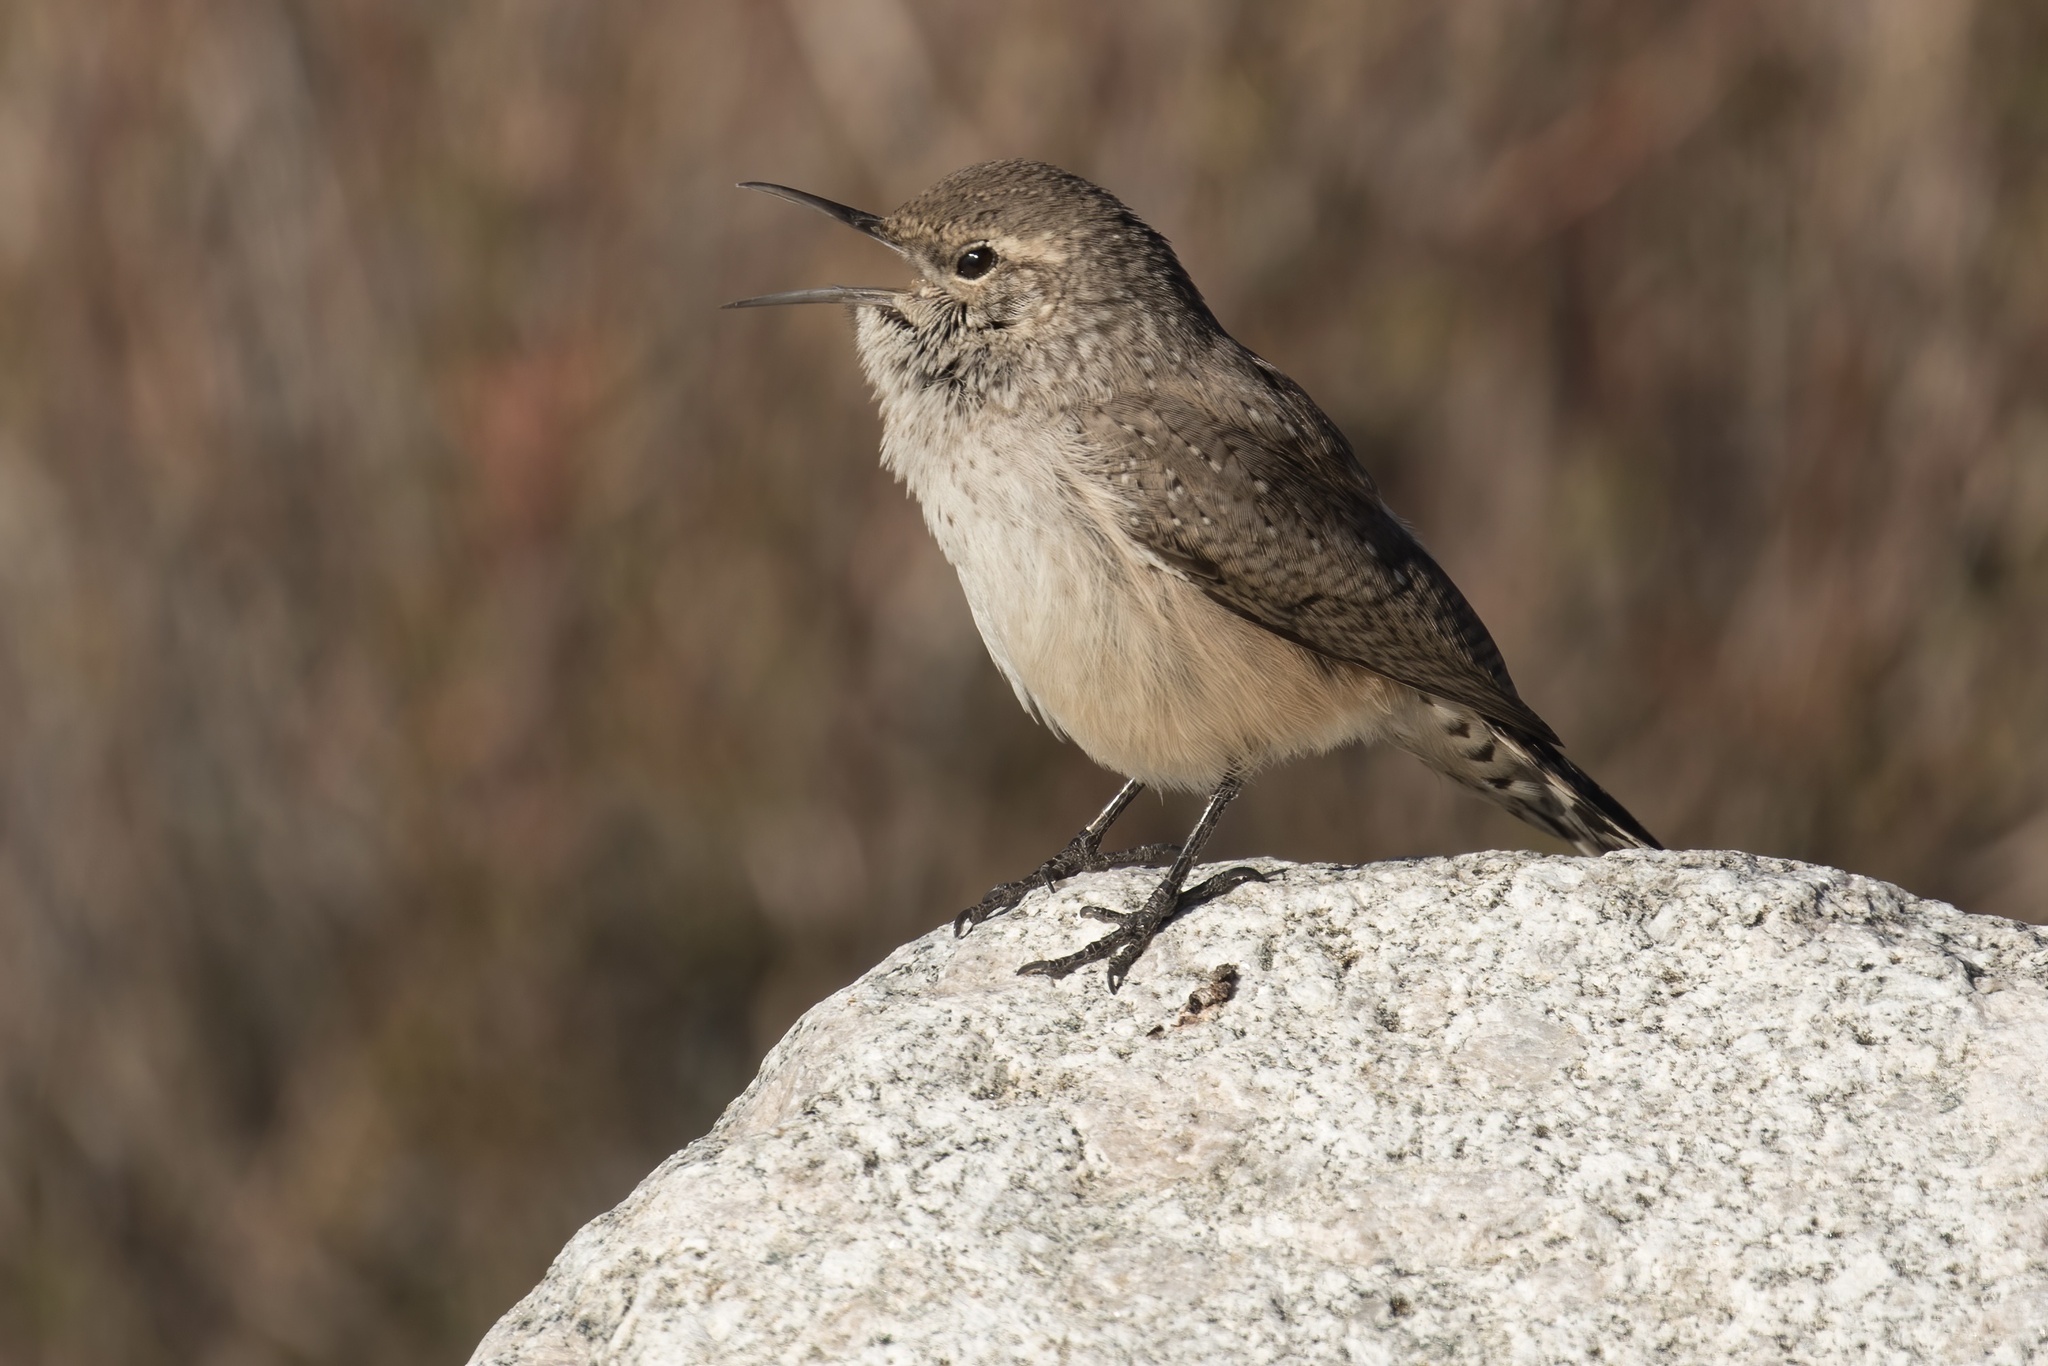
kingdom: Animalia
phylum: Chordata
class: Aves
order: Passeriformes
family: Troglodytidae
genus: Salpinctes
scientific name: Salpinctes obsoletus
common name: Rock wren
